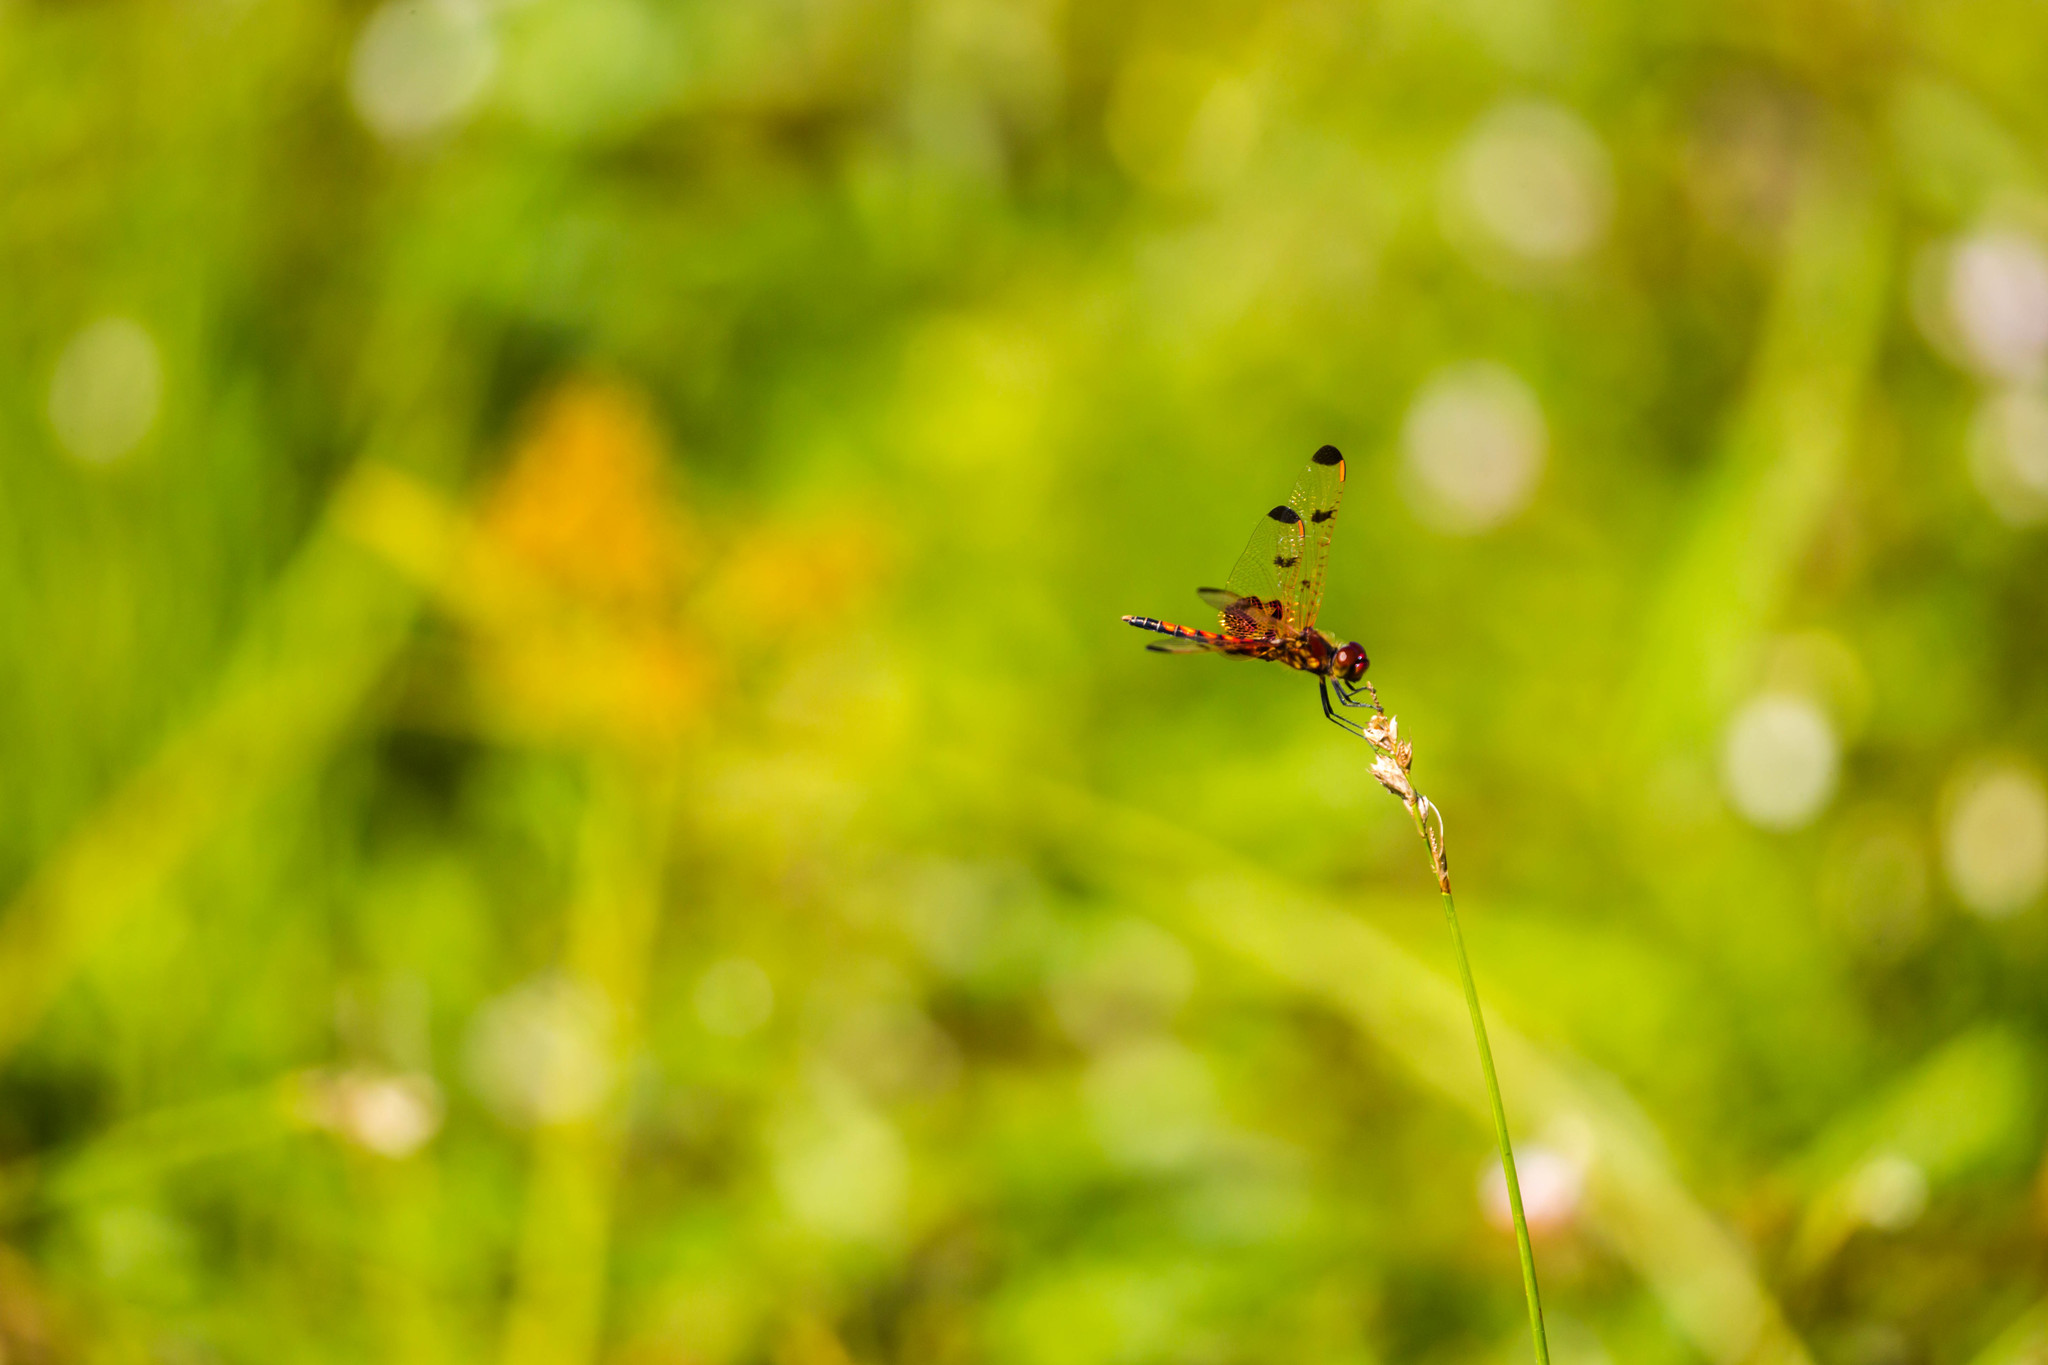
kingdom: Animalia
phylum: Arthropoda
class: Insecta
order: Odonata
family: Libellulidae
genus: Celithemis
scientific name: Celithemis elisa
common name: Calico pennant
